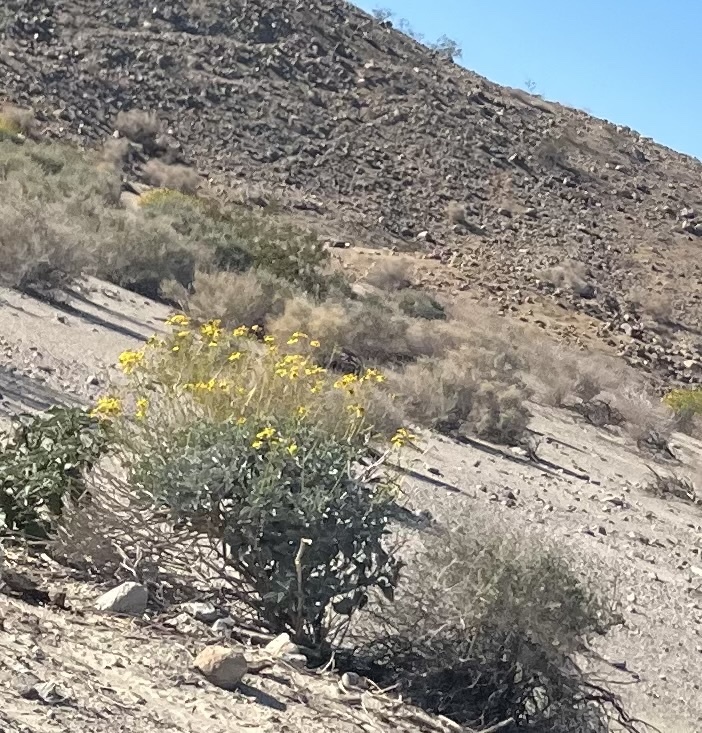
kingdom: Plantae
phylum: Tracheophyta
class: Magnoliopsida
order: Asterales
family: Asteraceae
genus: Encelia
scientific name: Encelia farinosa
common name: Brittlebush
